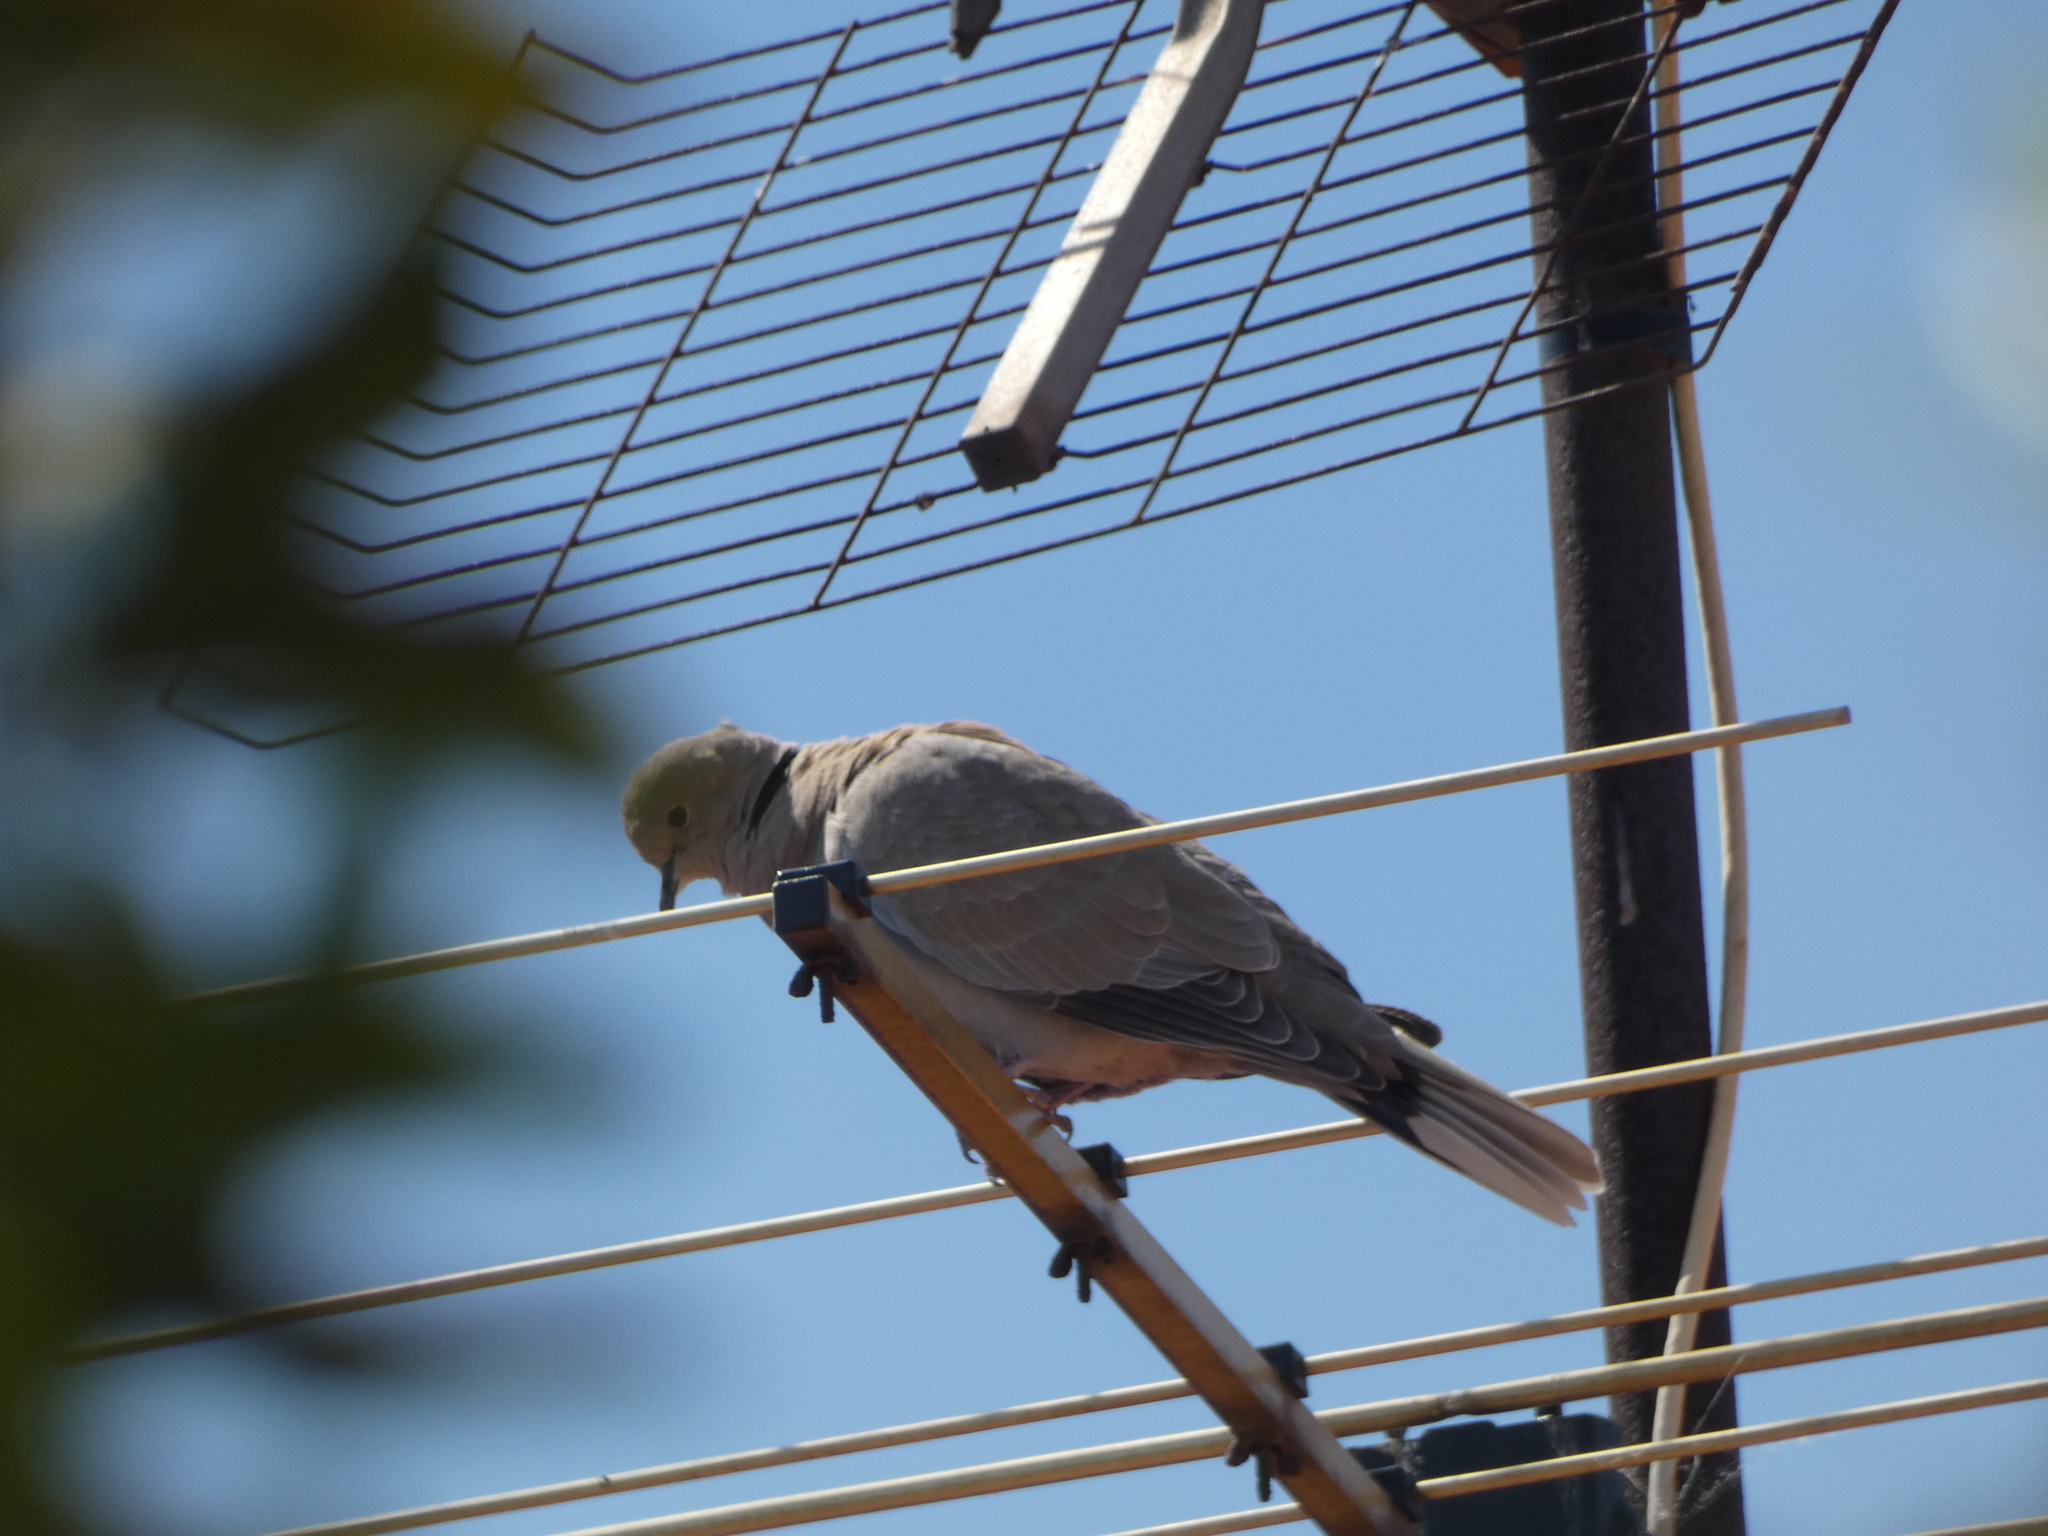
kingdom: Animalia
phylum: Chordata
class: Aves
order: Columbiformes
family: Columbidae
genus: Streptopelia
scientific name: Streptopelia decaocto
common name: Eurasian collared dove
